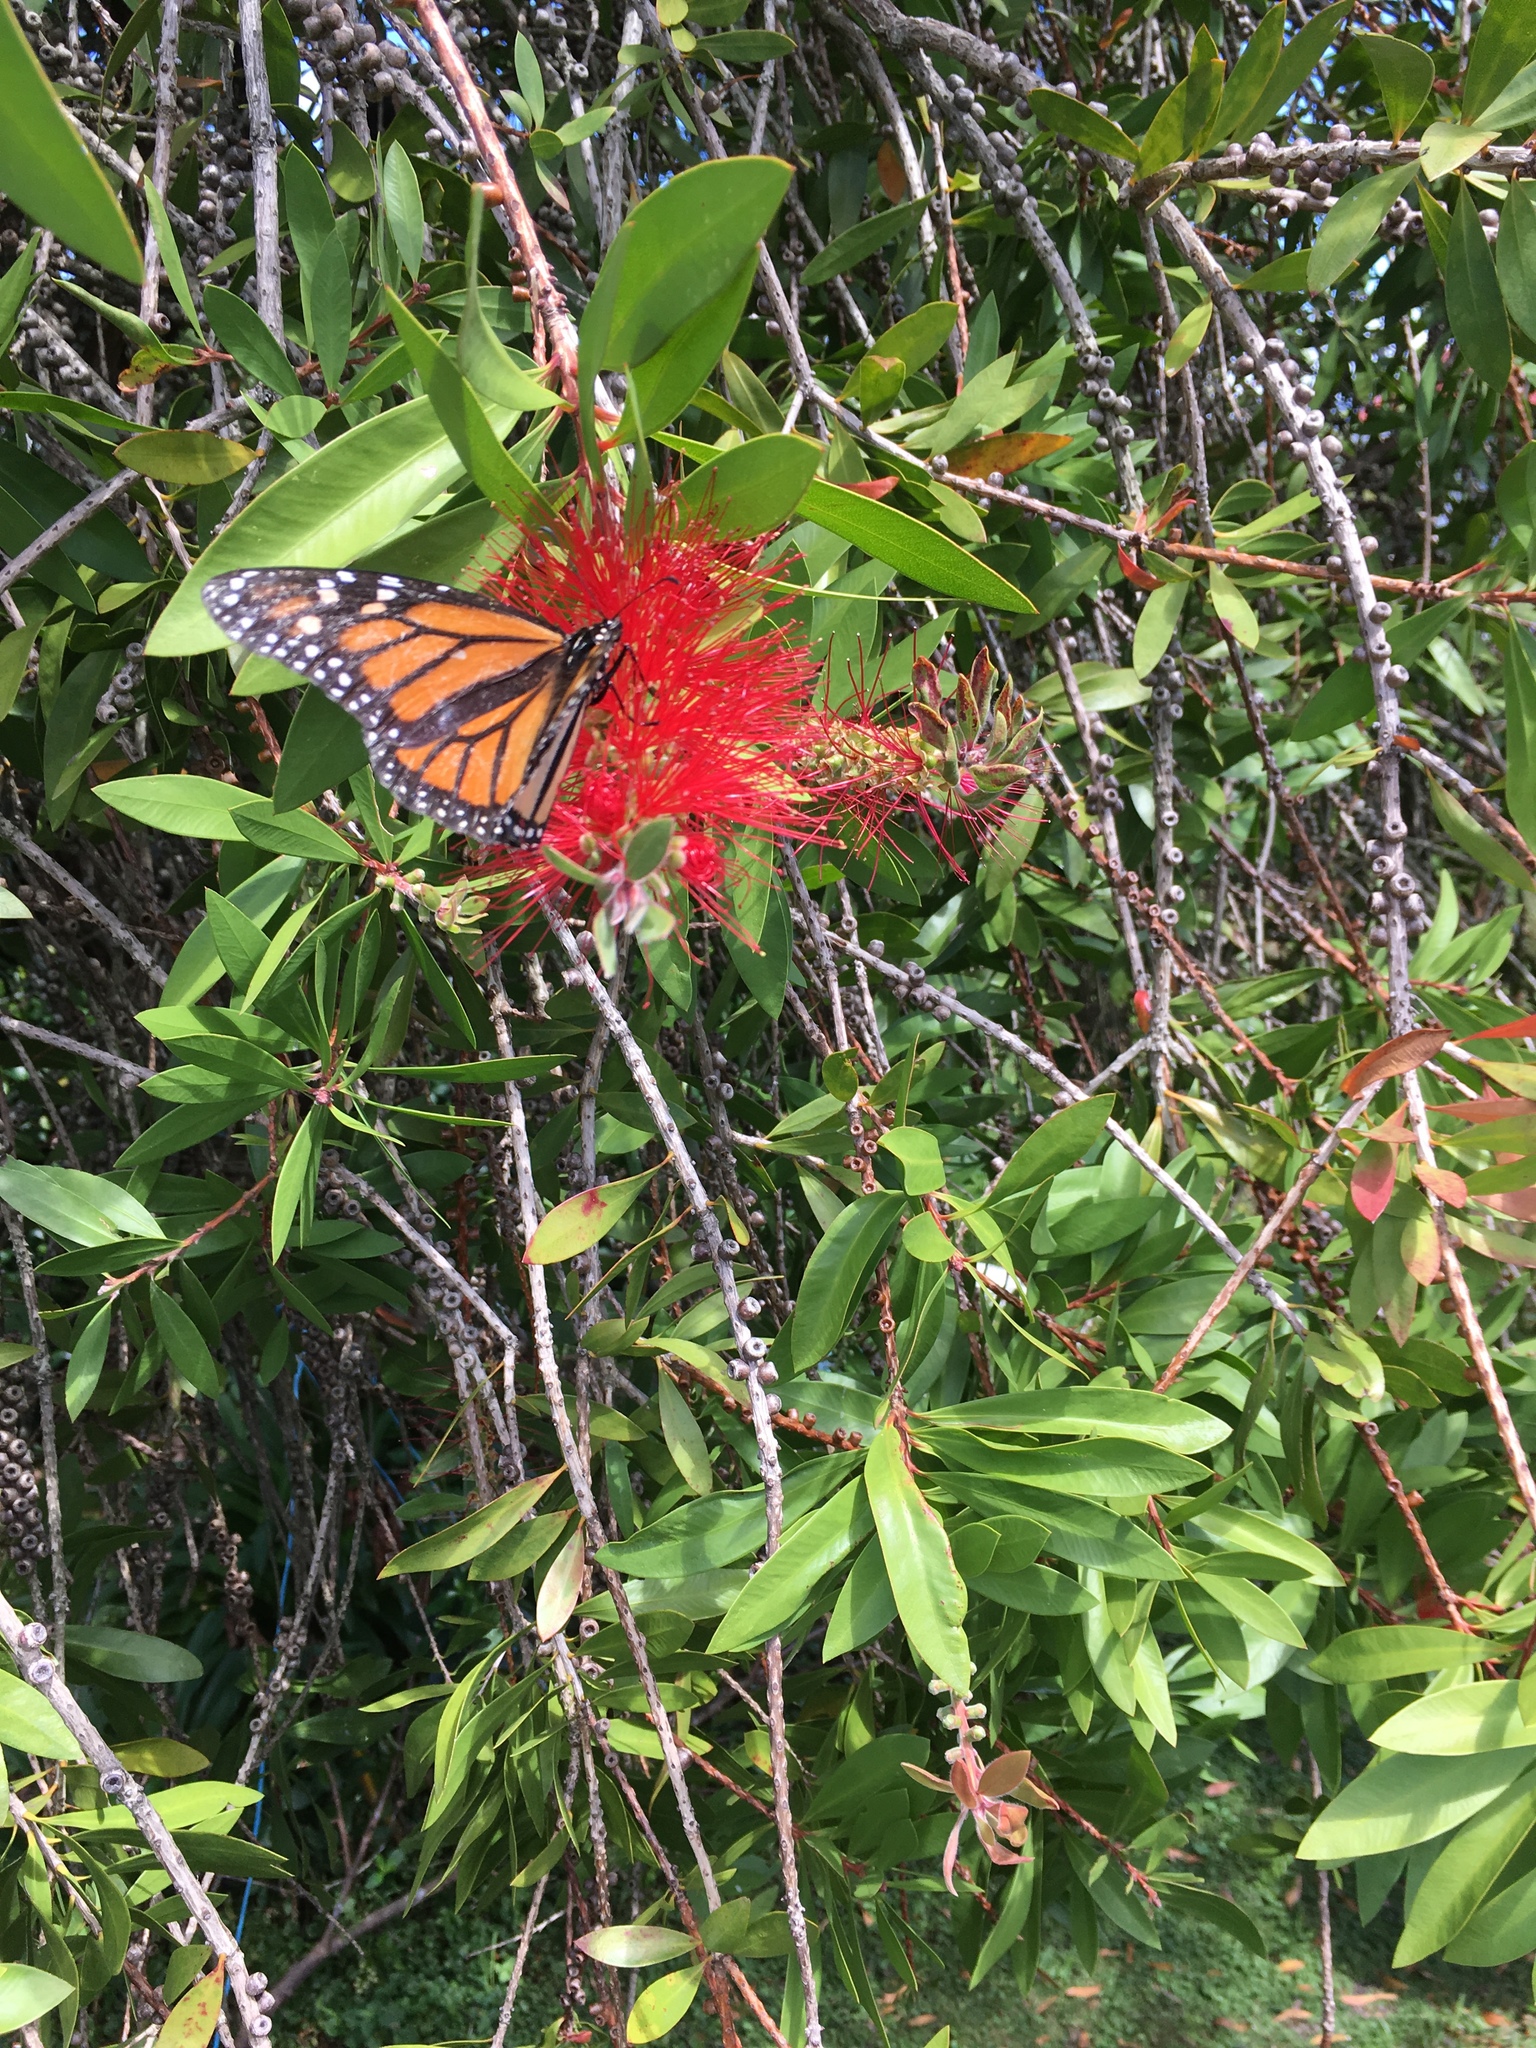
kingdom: Animalia
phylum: Arthropoda
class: Insecta
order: Lepidoptera
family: Nymphalidae
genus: Danaus
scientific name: Danaus plexippus
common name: Monarch
